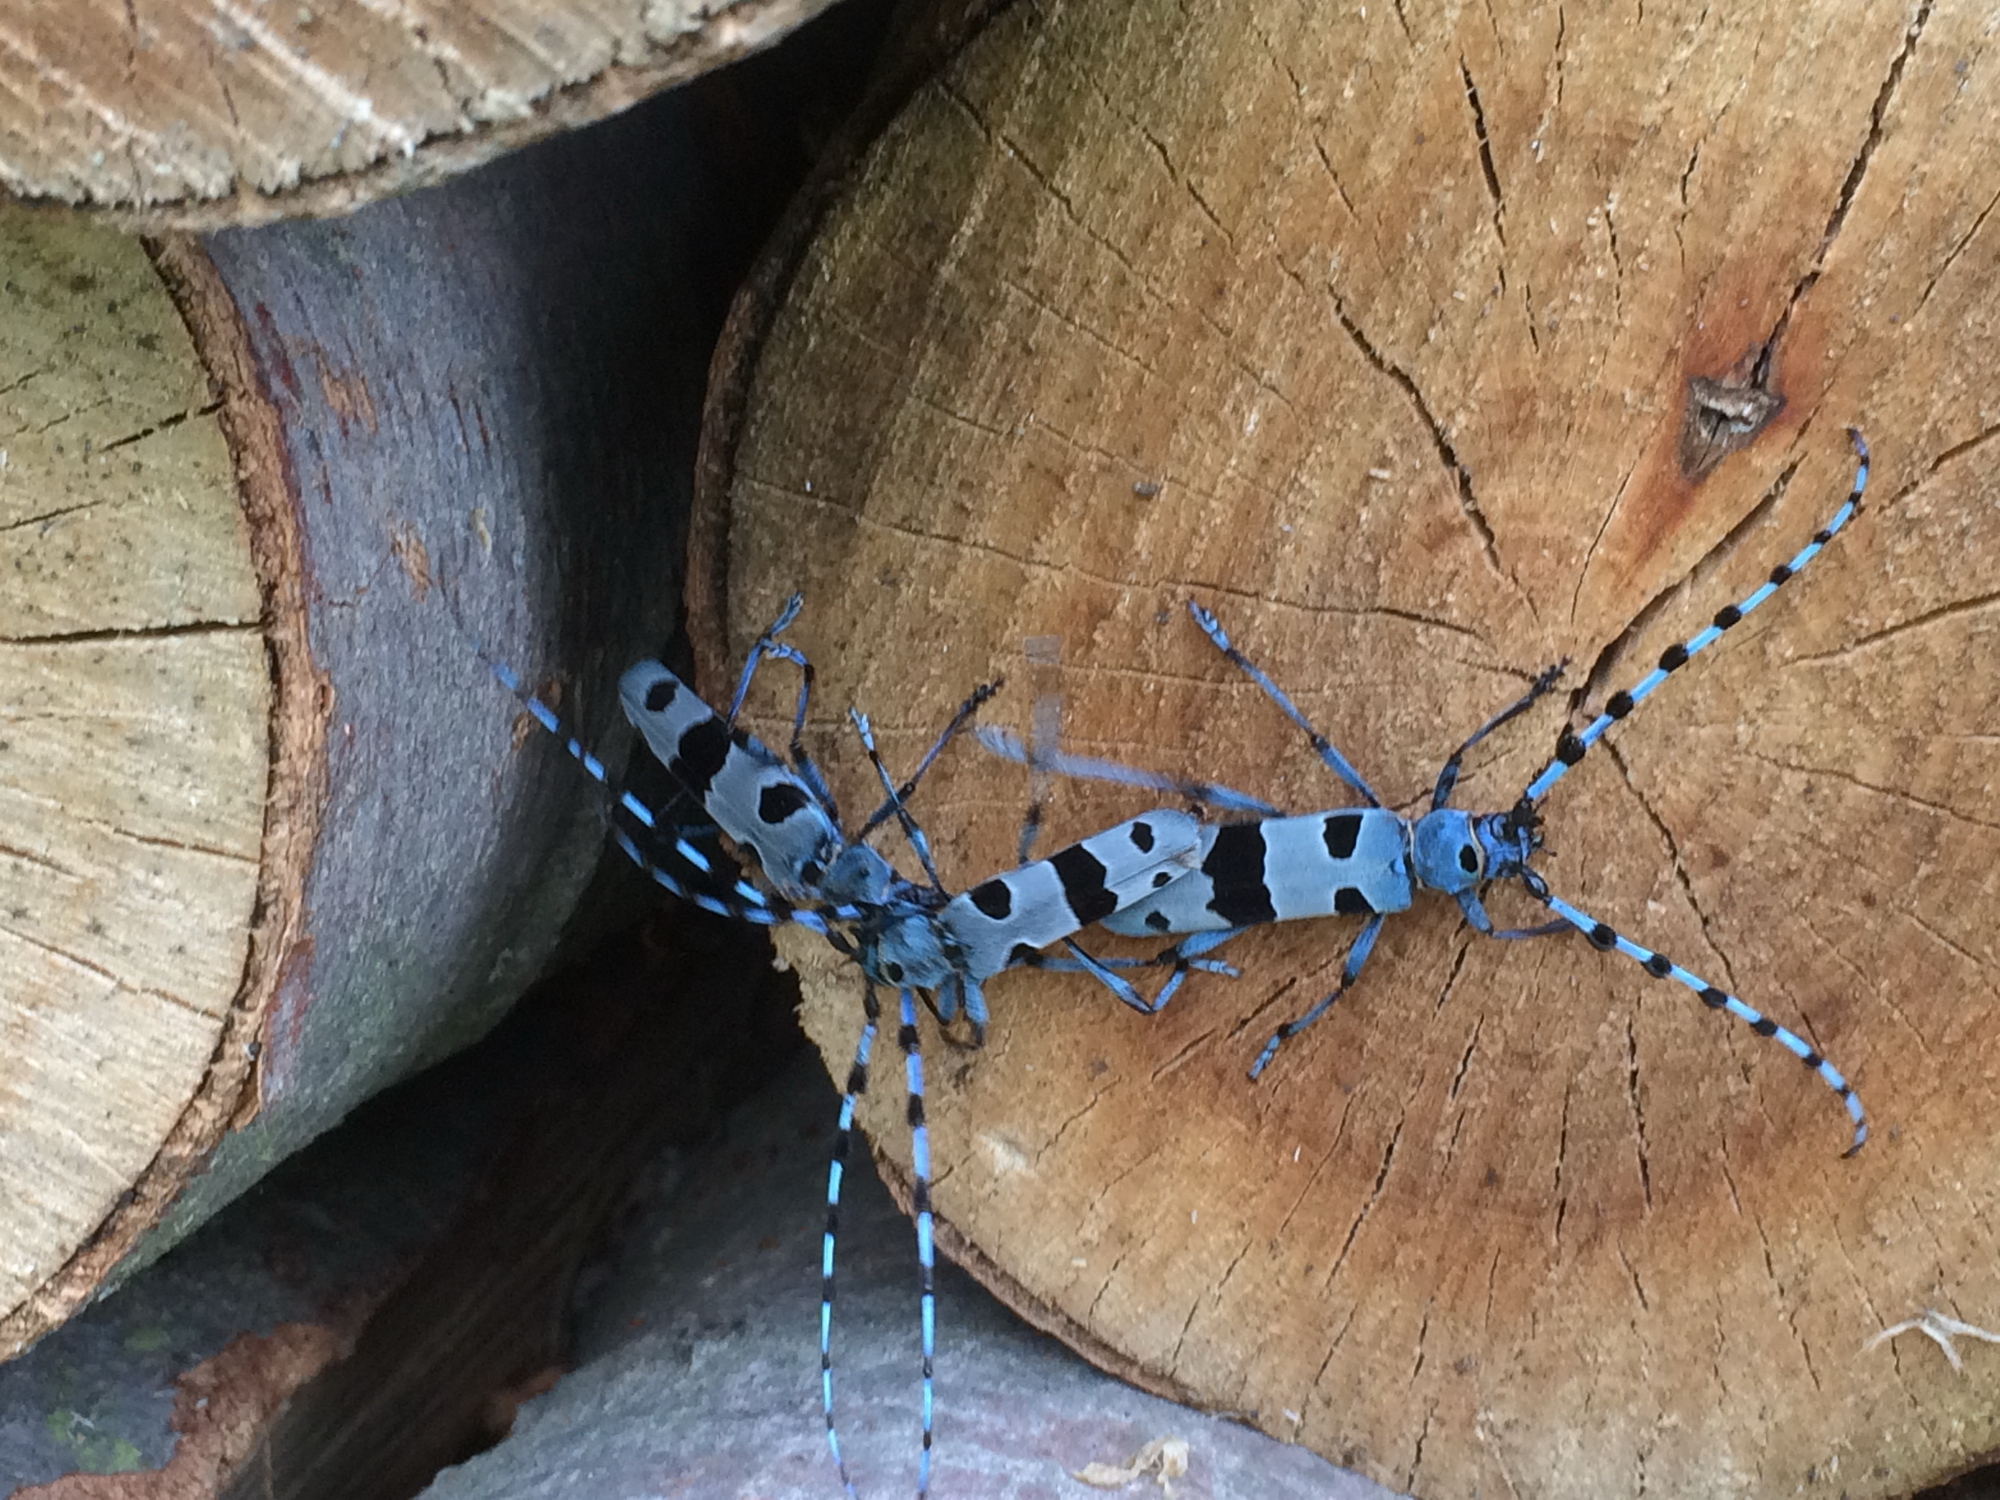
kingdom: Animalia
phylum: Arthropoda
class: Insecta
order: Coleoptera
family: Cerambycidae
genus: Rosalia
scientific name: Rosalia alpina
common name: Rosalia longicorn
